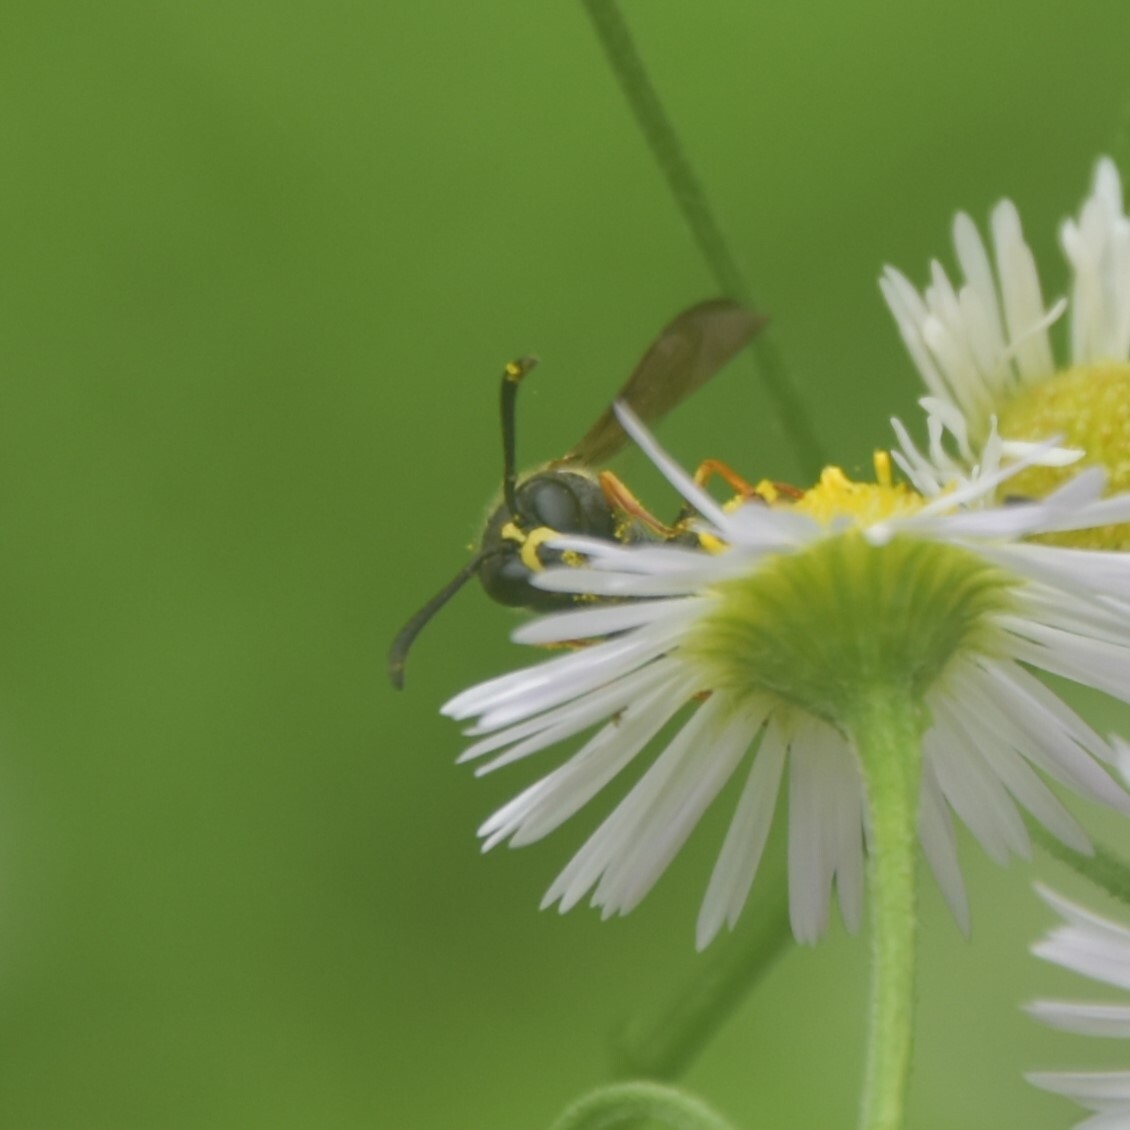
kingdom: Animalia
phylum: Arthropoda
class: Insecta
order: Hymenoptera
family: Vespidae
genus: Eumenes
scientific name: Eumenes
